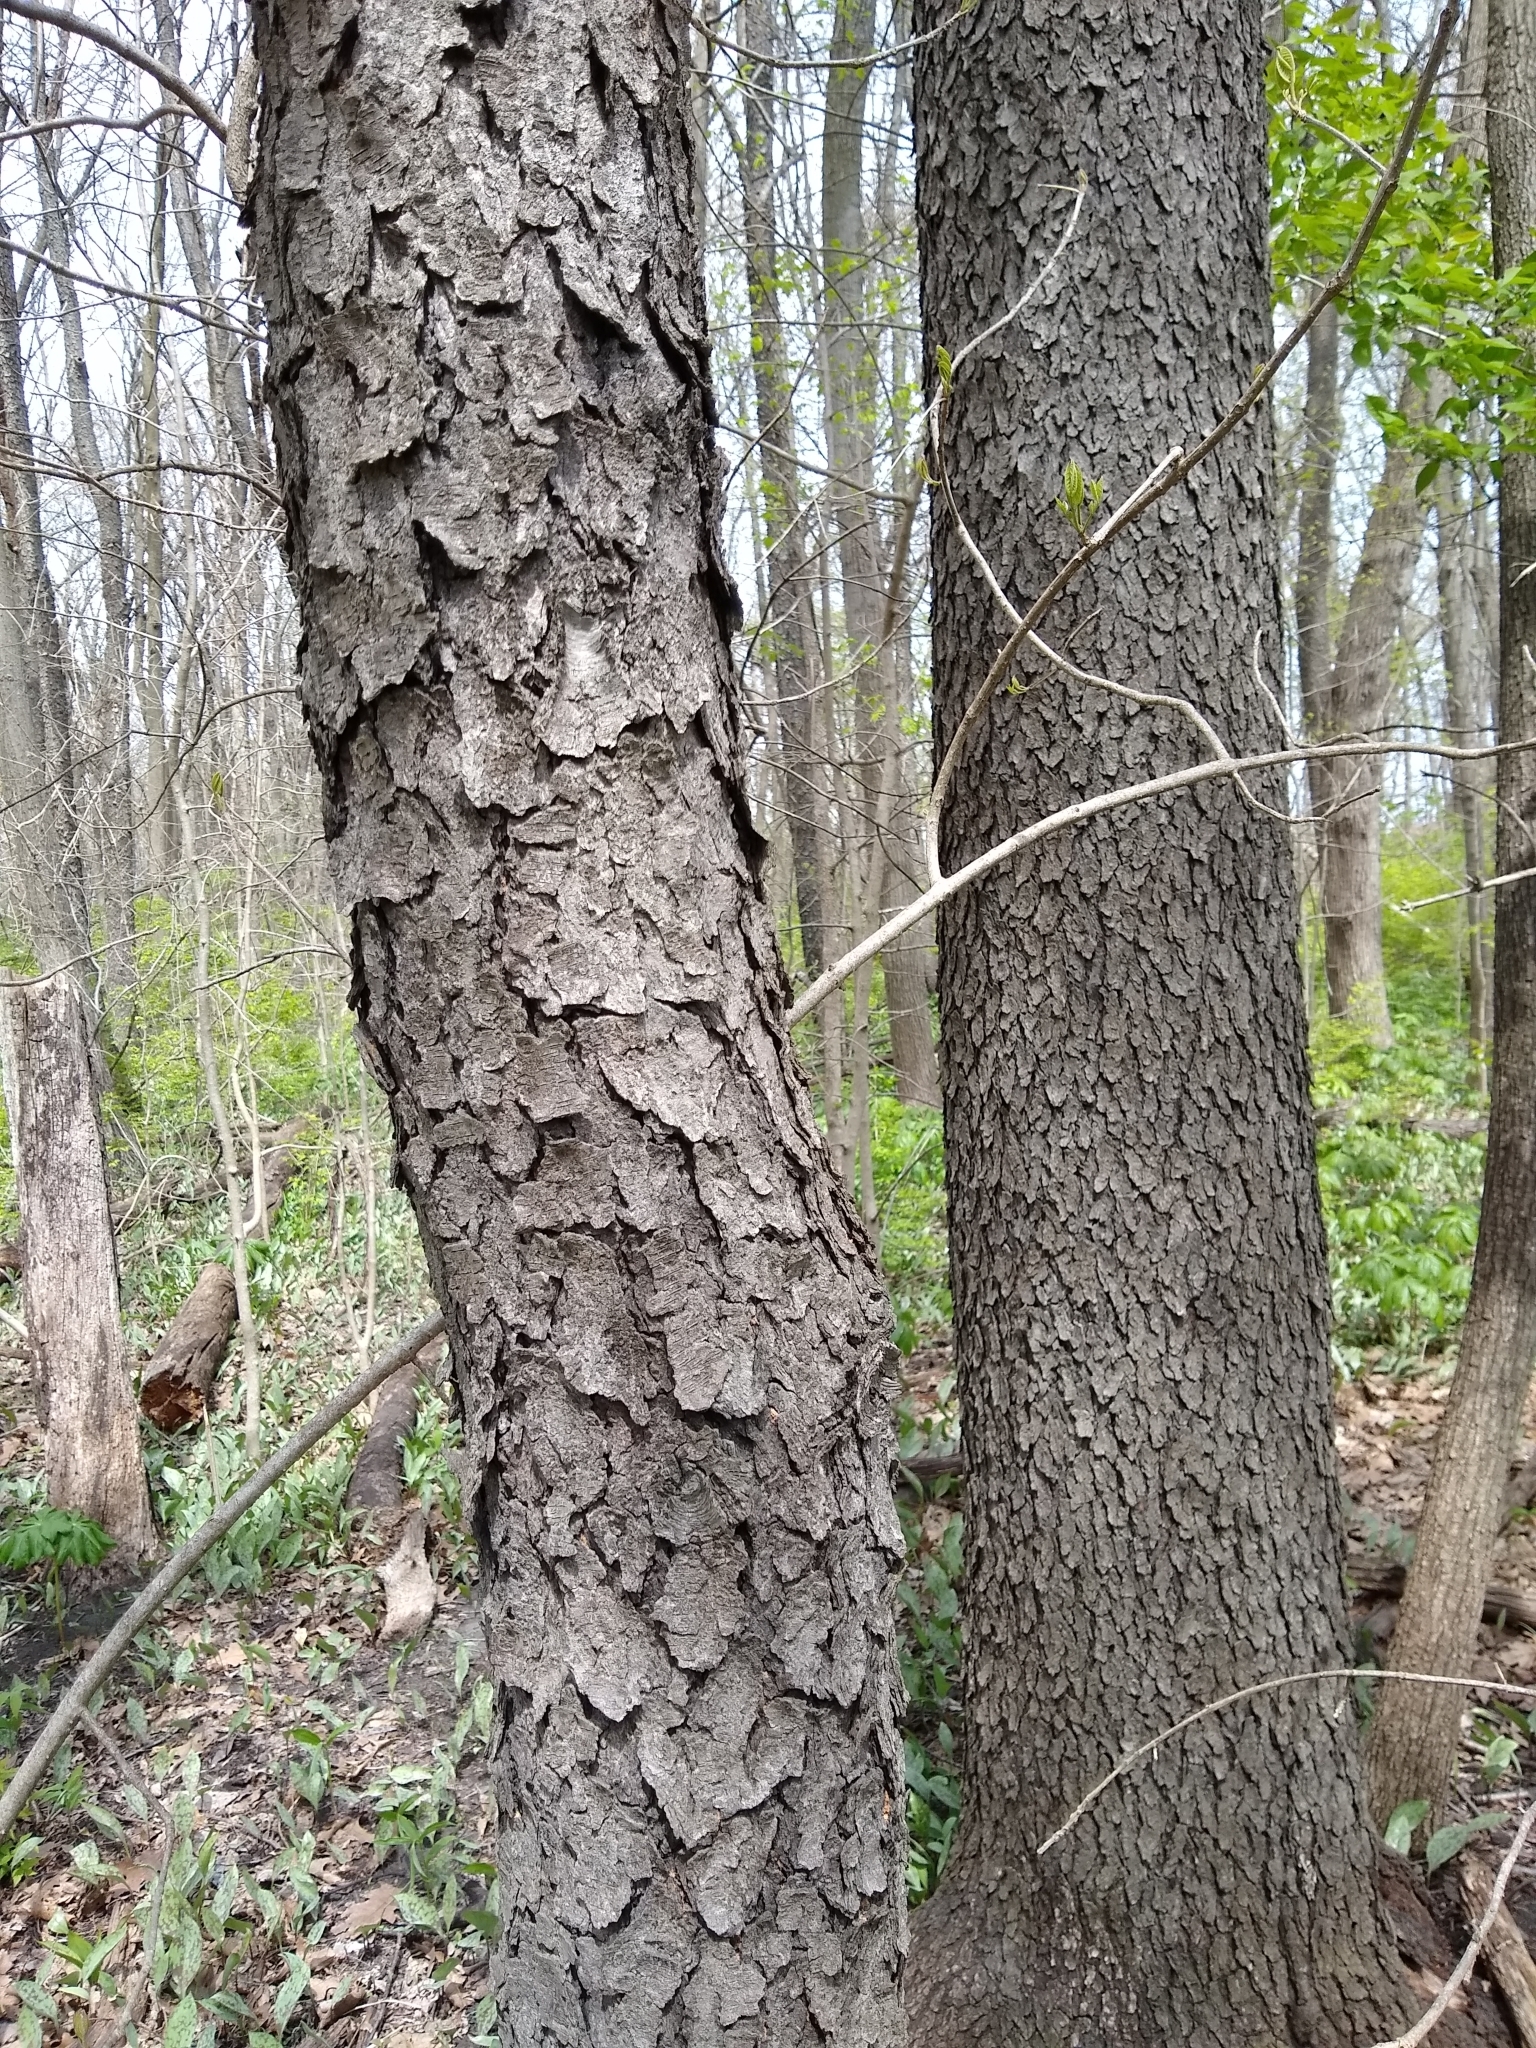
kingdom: Plantae
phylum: Tracheophyta
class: Magnoliopsida
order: Rosales
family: Rosaceae
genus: Prunus
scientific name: Prunus serotina
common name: Black cherry
